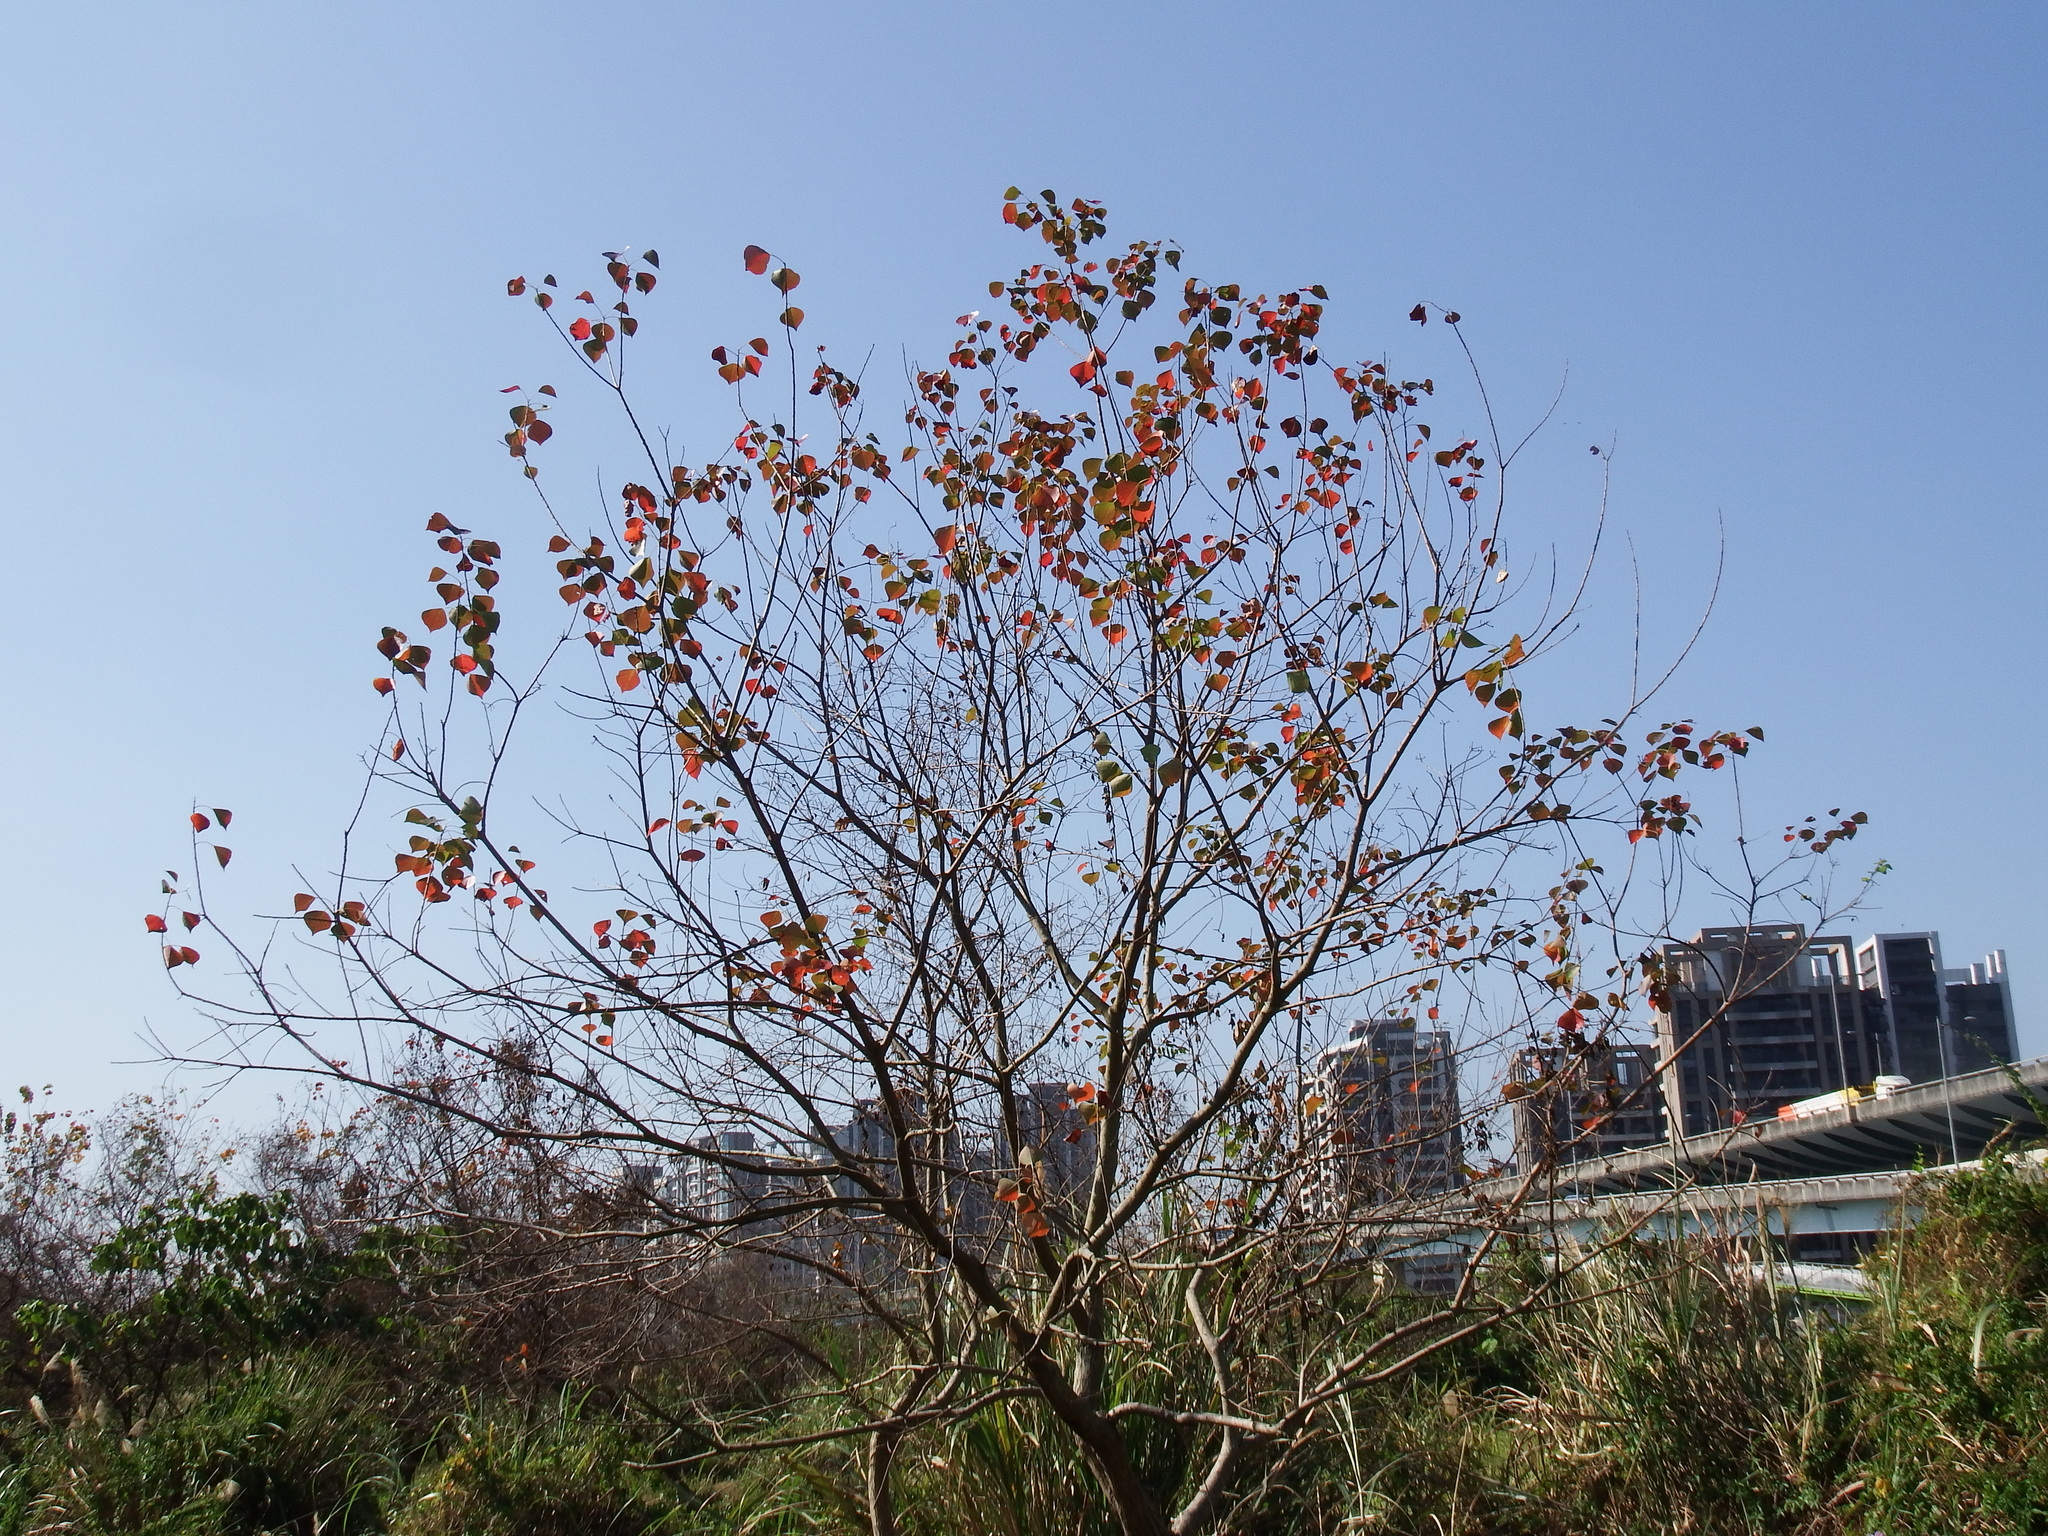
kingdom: Plantae
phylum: Tracheophyta
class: Magnoliopsida
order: Malpighiales
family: Euphorbiaceae
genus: Triadica
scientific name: Triadica sebifera
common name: Chinese tallow
